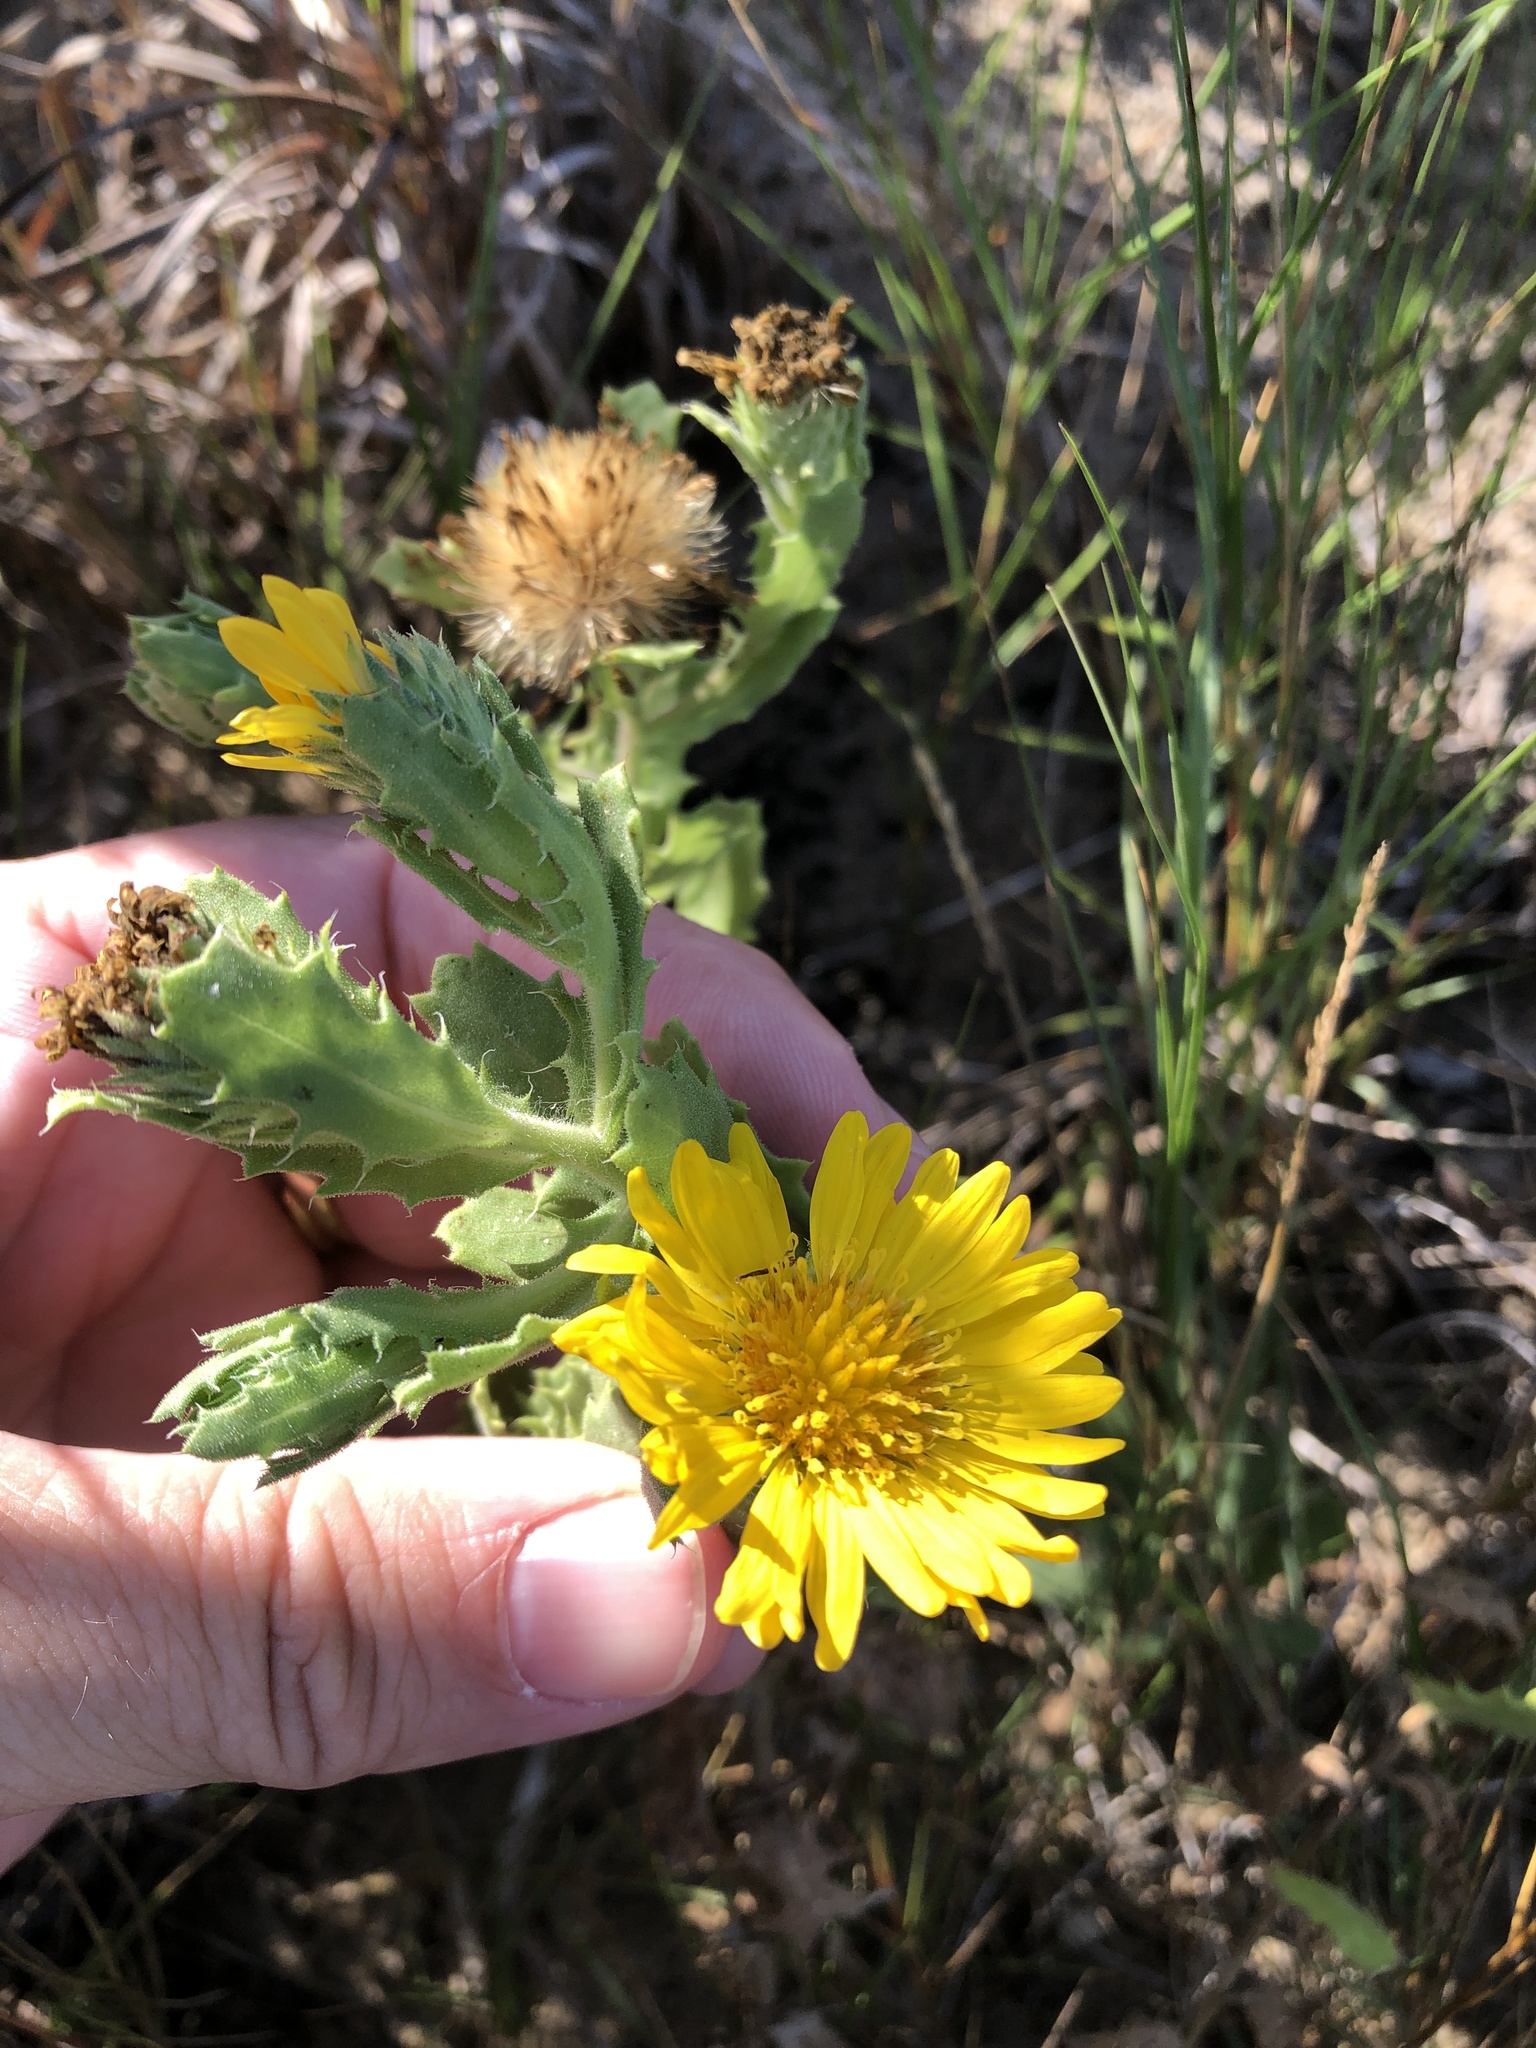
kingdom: Plantae
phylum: Tracheophyta
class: Magnoliopsida
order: Asterales
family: Asteraceae
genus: Rayjacksonia
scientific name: Rayjacksonia phyllocephala
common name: Gulf coast camphor daisy
